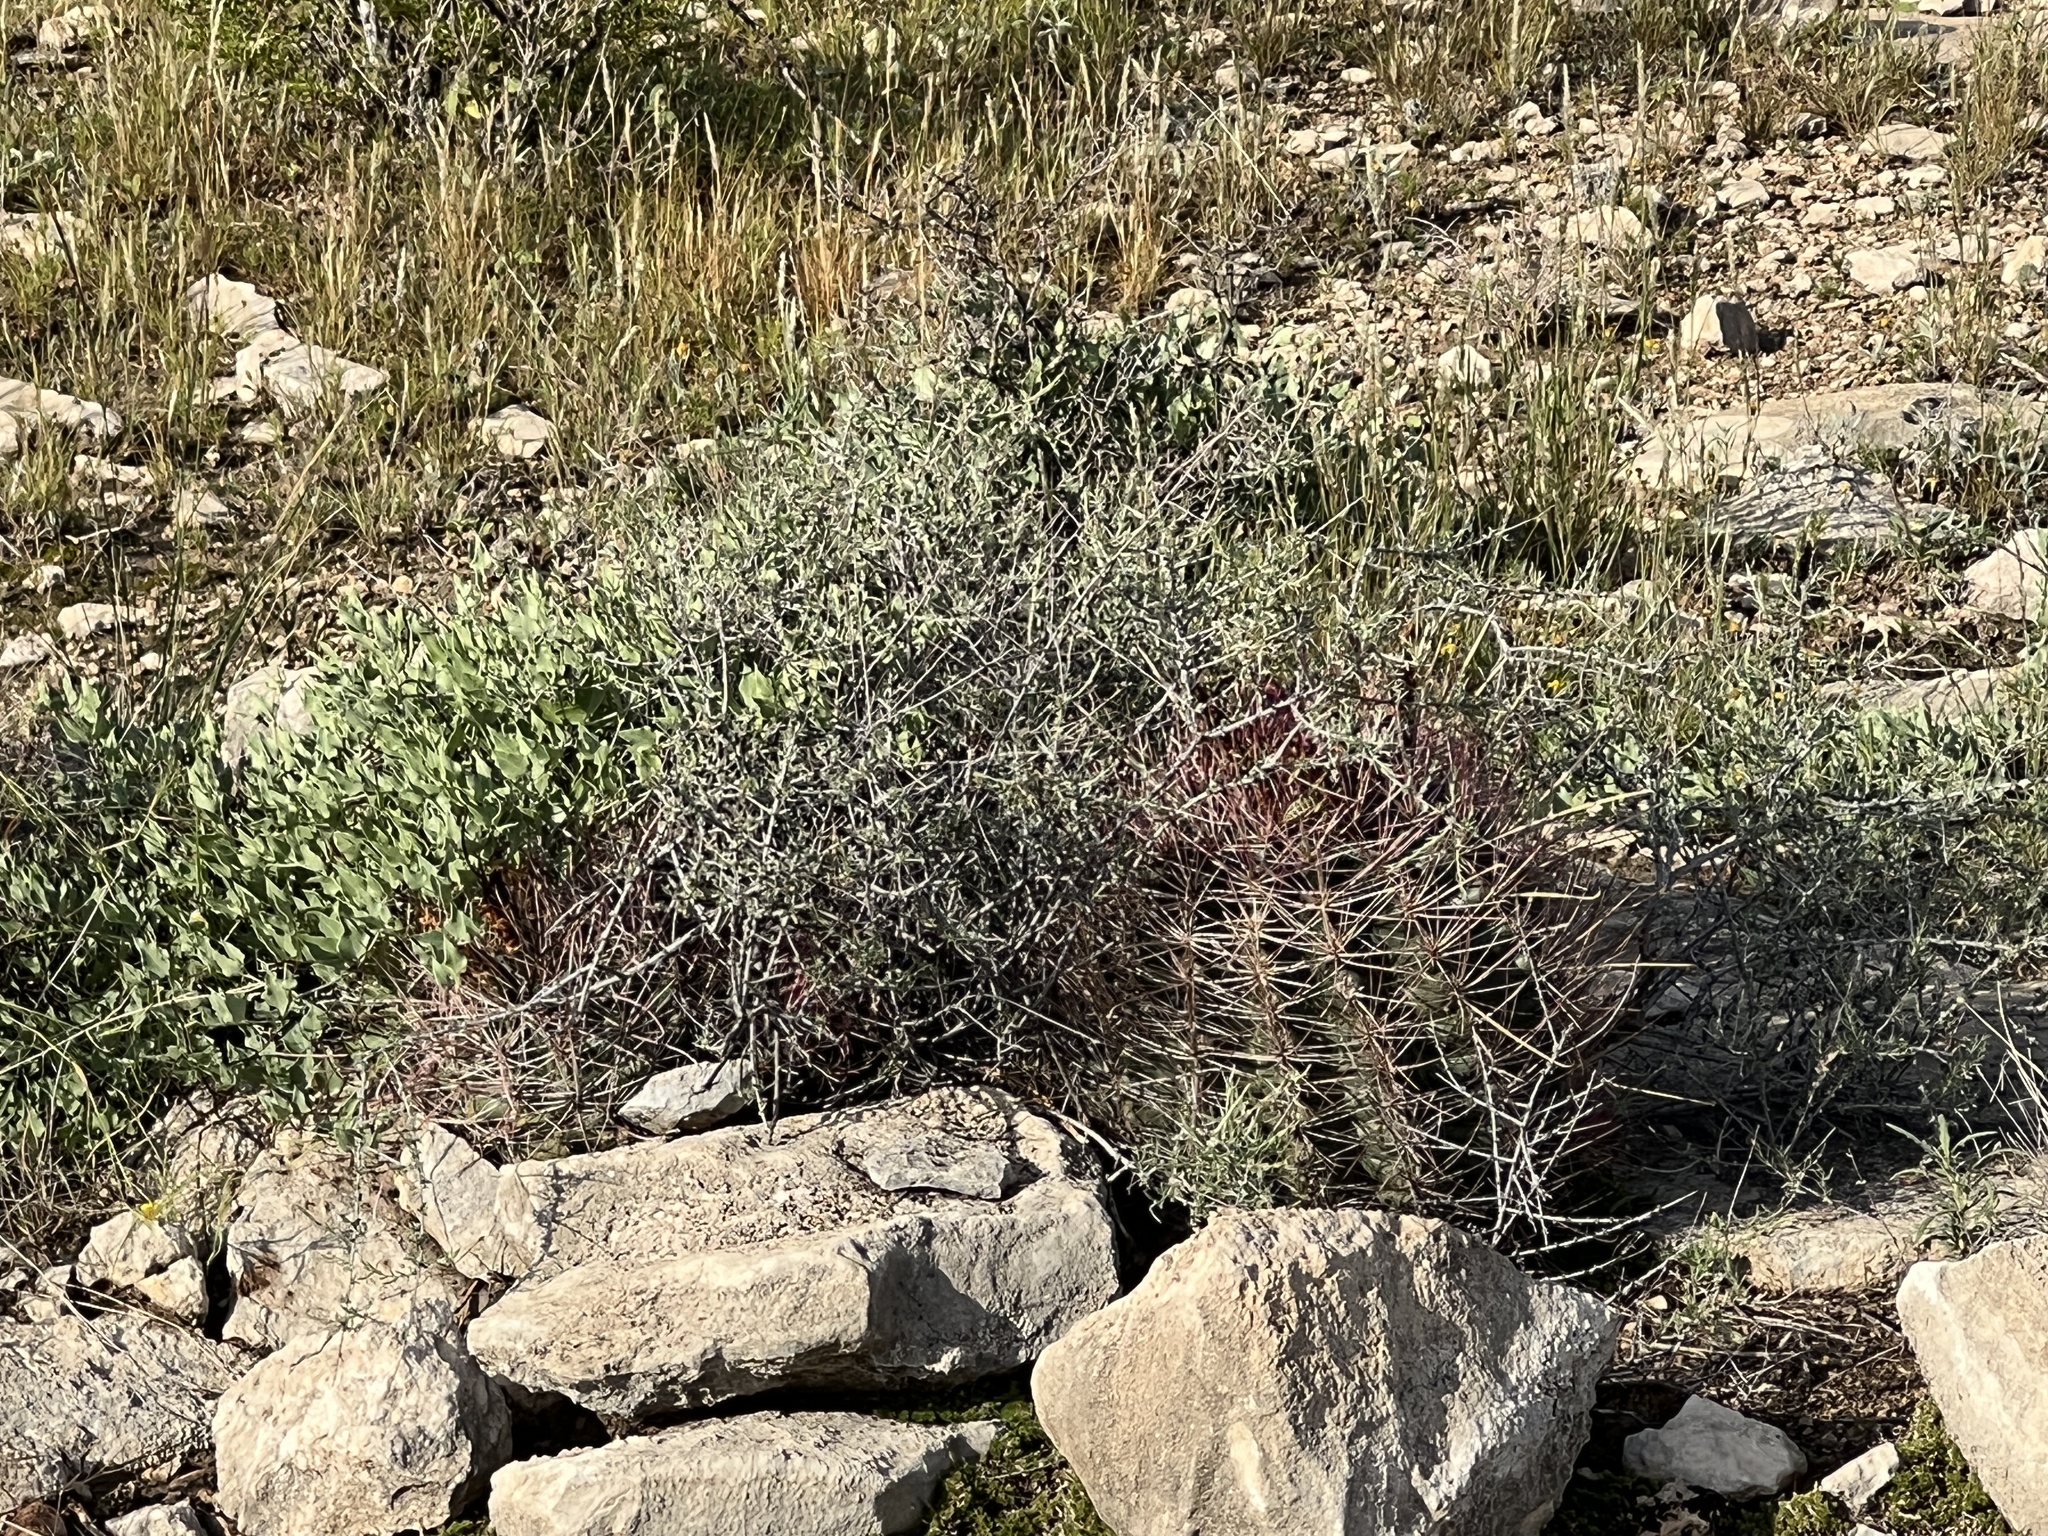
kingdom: Plantae
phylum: Tracheophyta
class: Magnoliopsida
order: Caryophyllales
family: Cactaceae
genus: Bisnaga
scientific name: Bisnaga hamatacantha
